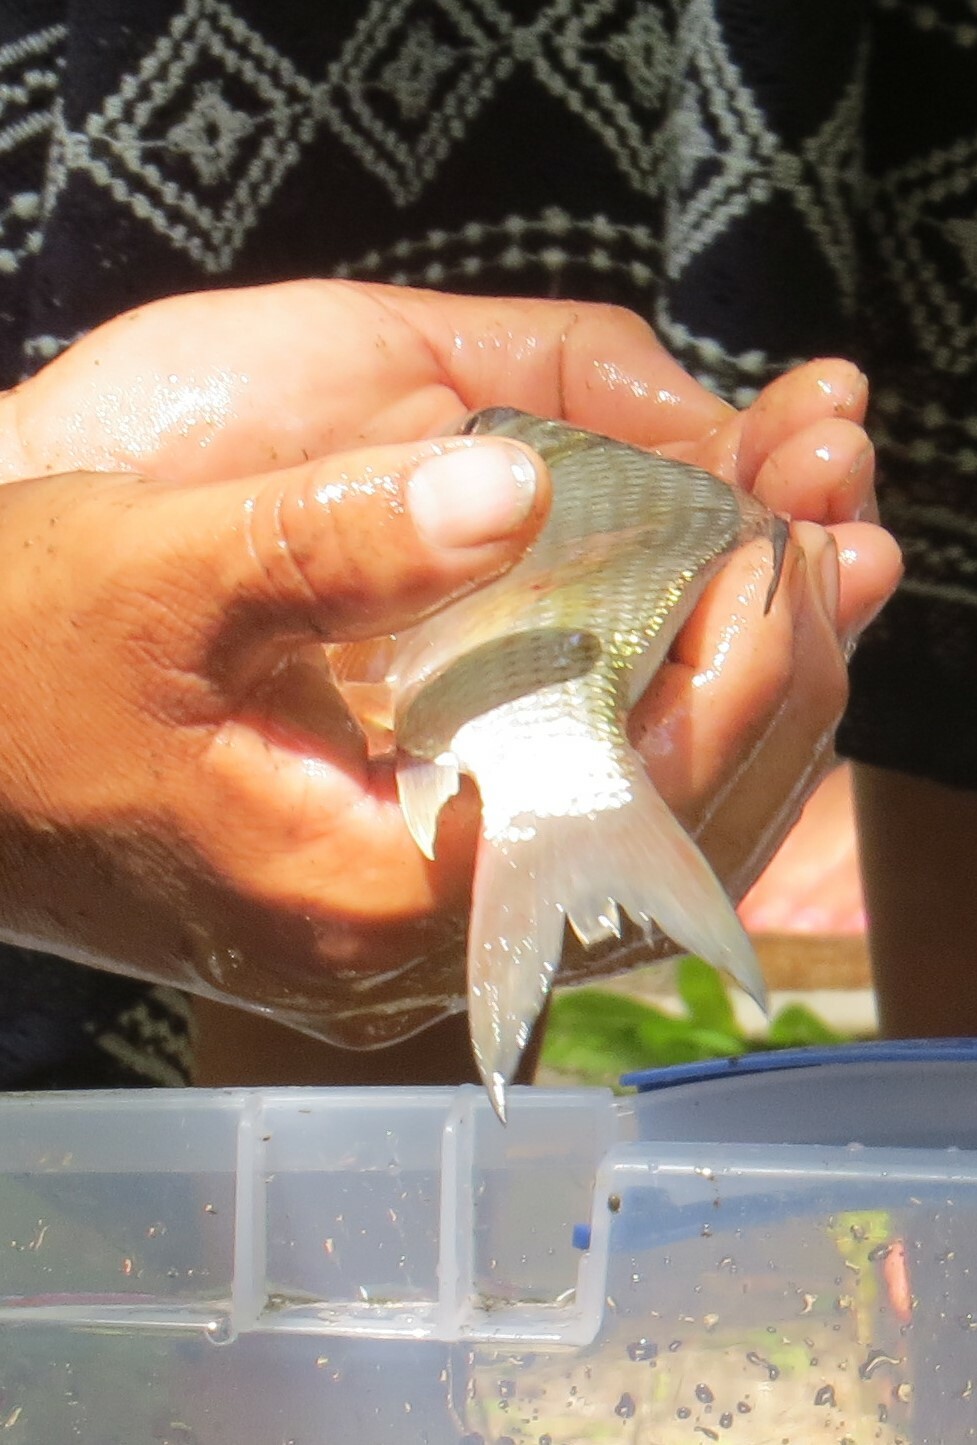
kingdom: Animalia
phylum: Chordata
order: Cypriniformes
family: Catostomidae
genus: Carpiodes
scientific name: Carpiodes
